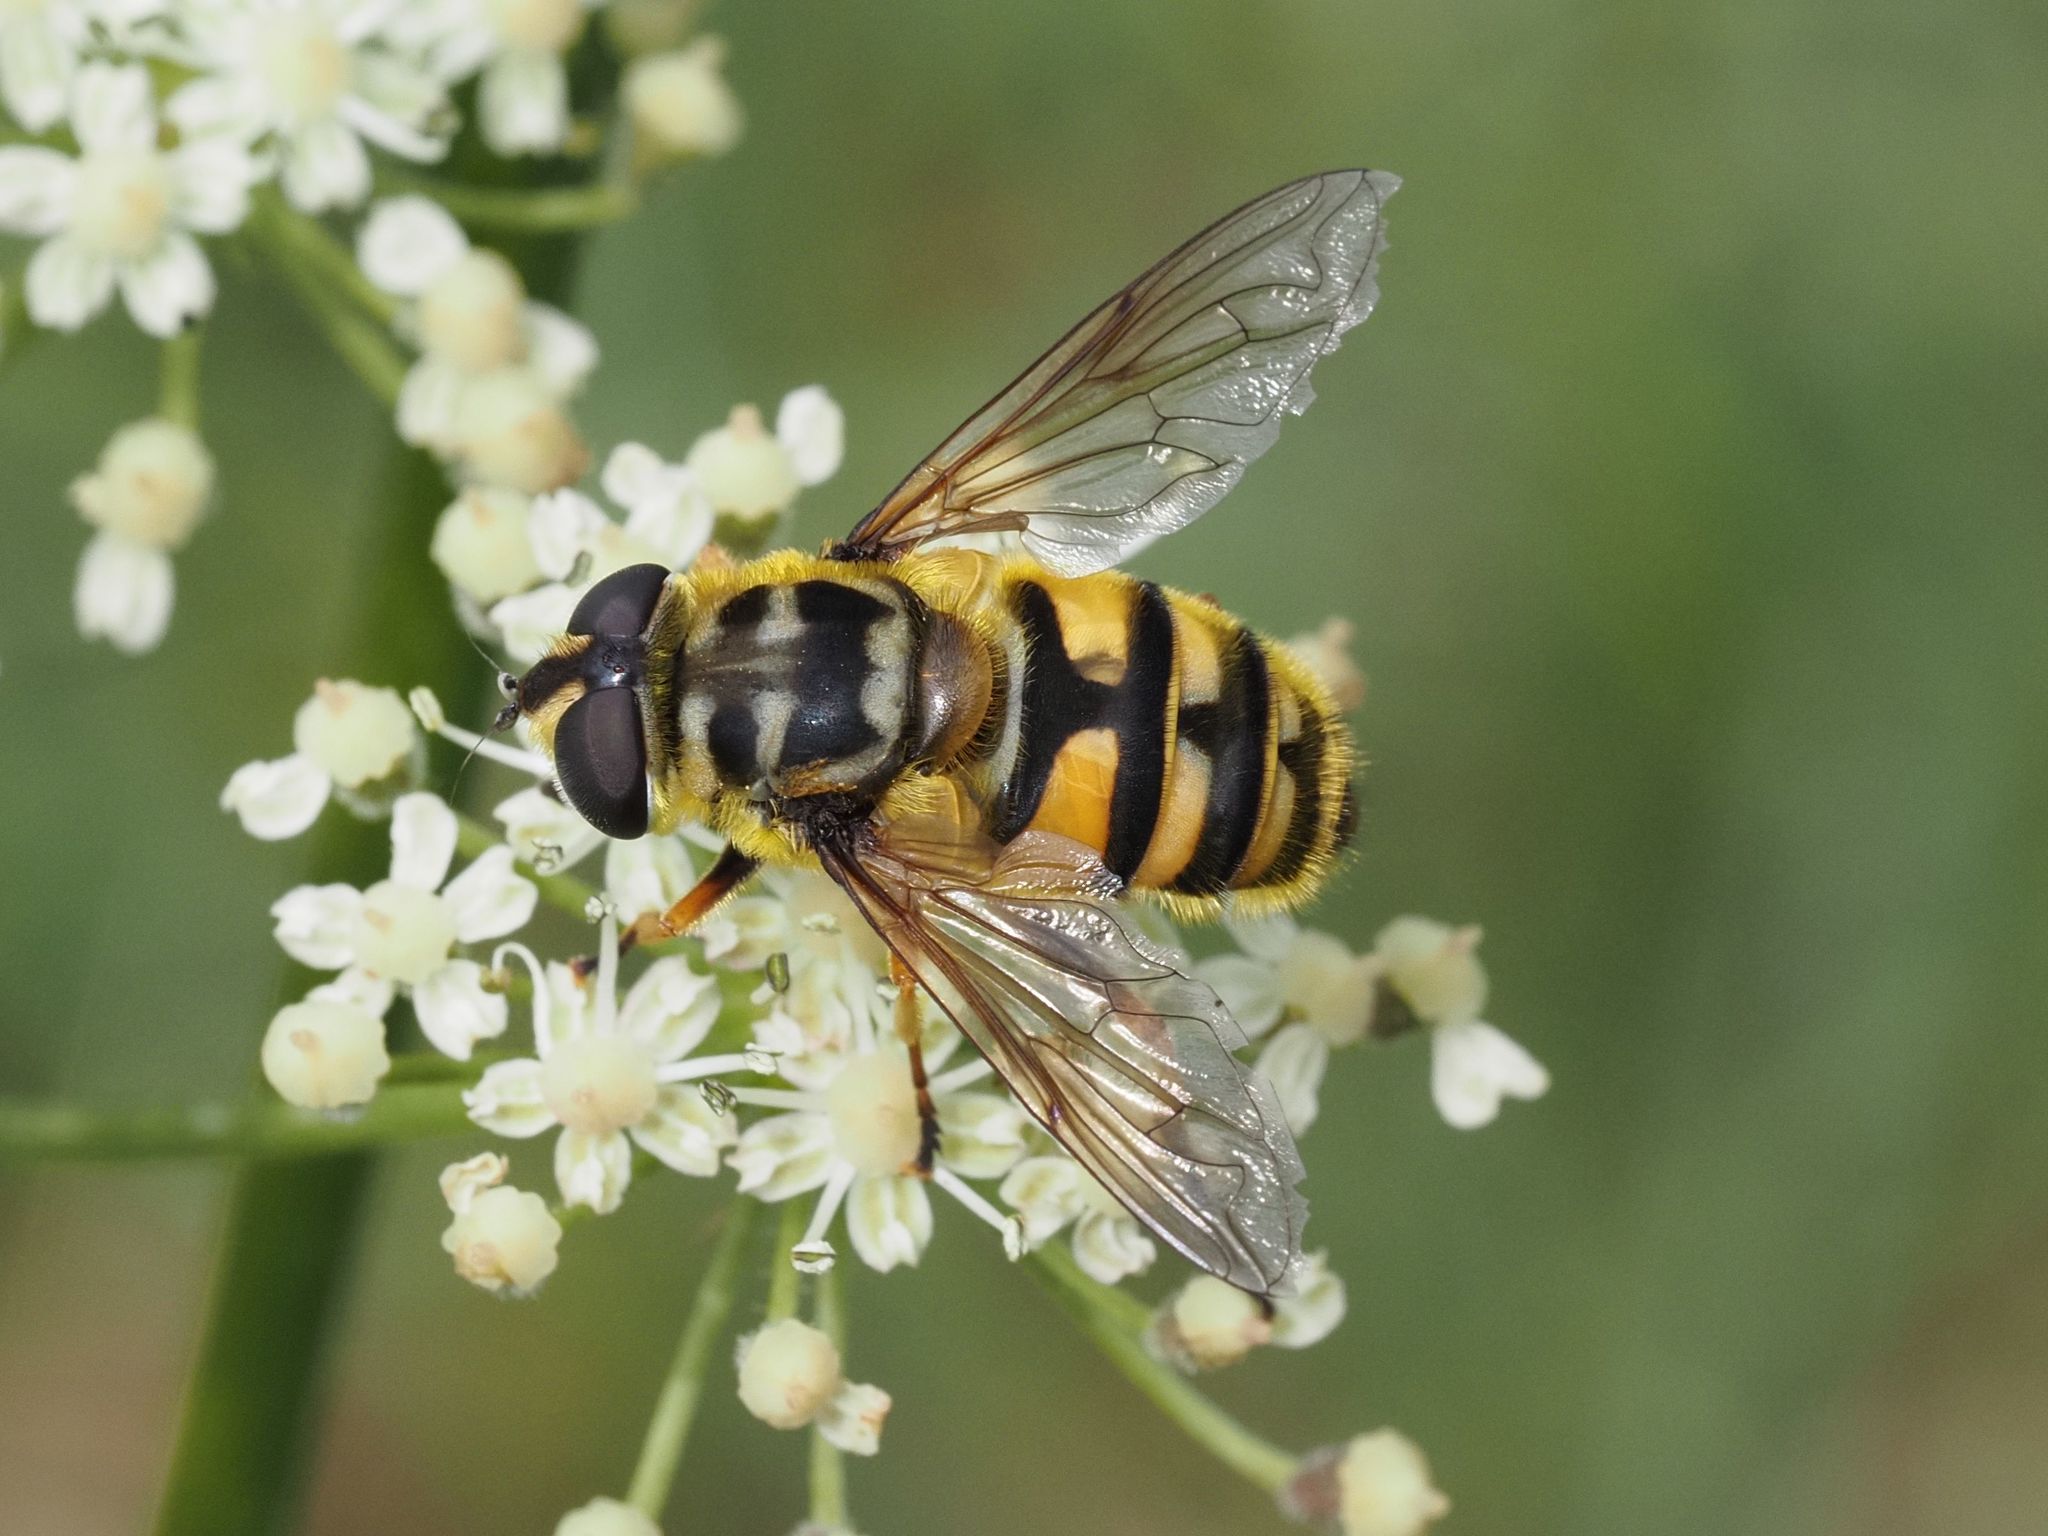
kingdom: Animalia
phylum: Arthropoda
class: Insecta
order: Diptera
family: Syrphidae
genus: Myathropa
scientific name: Myathropa florea
